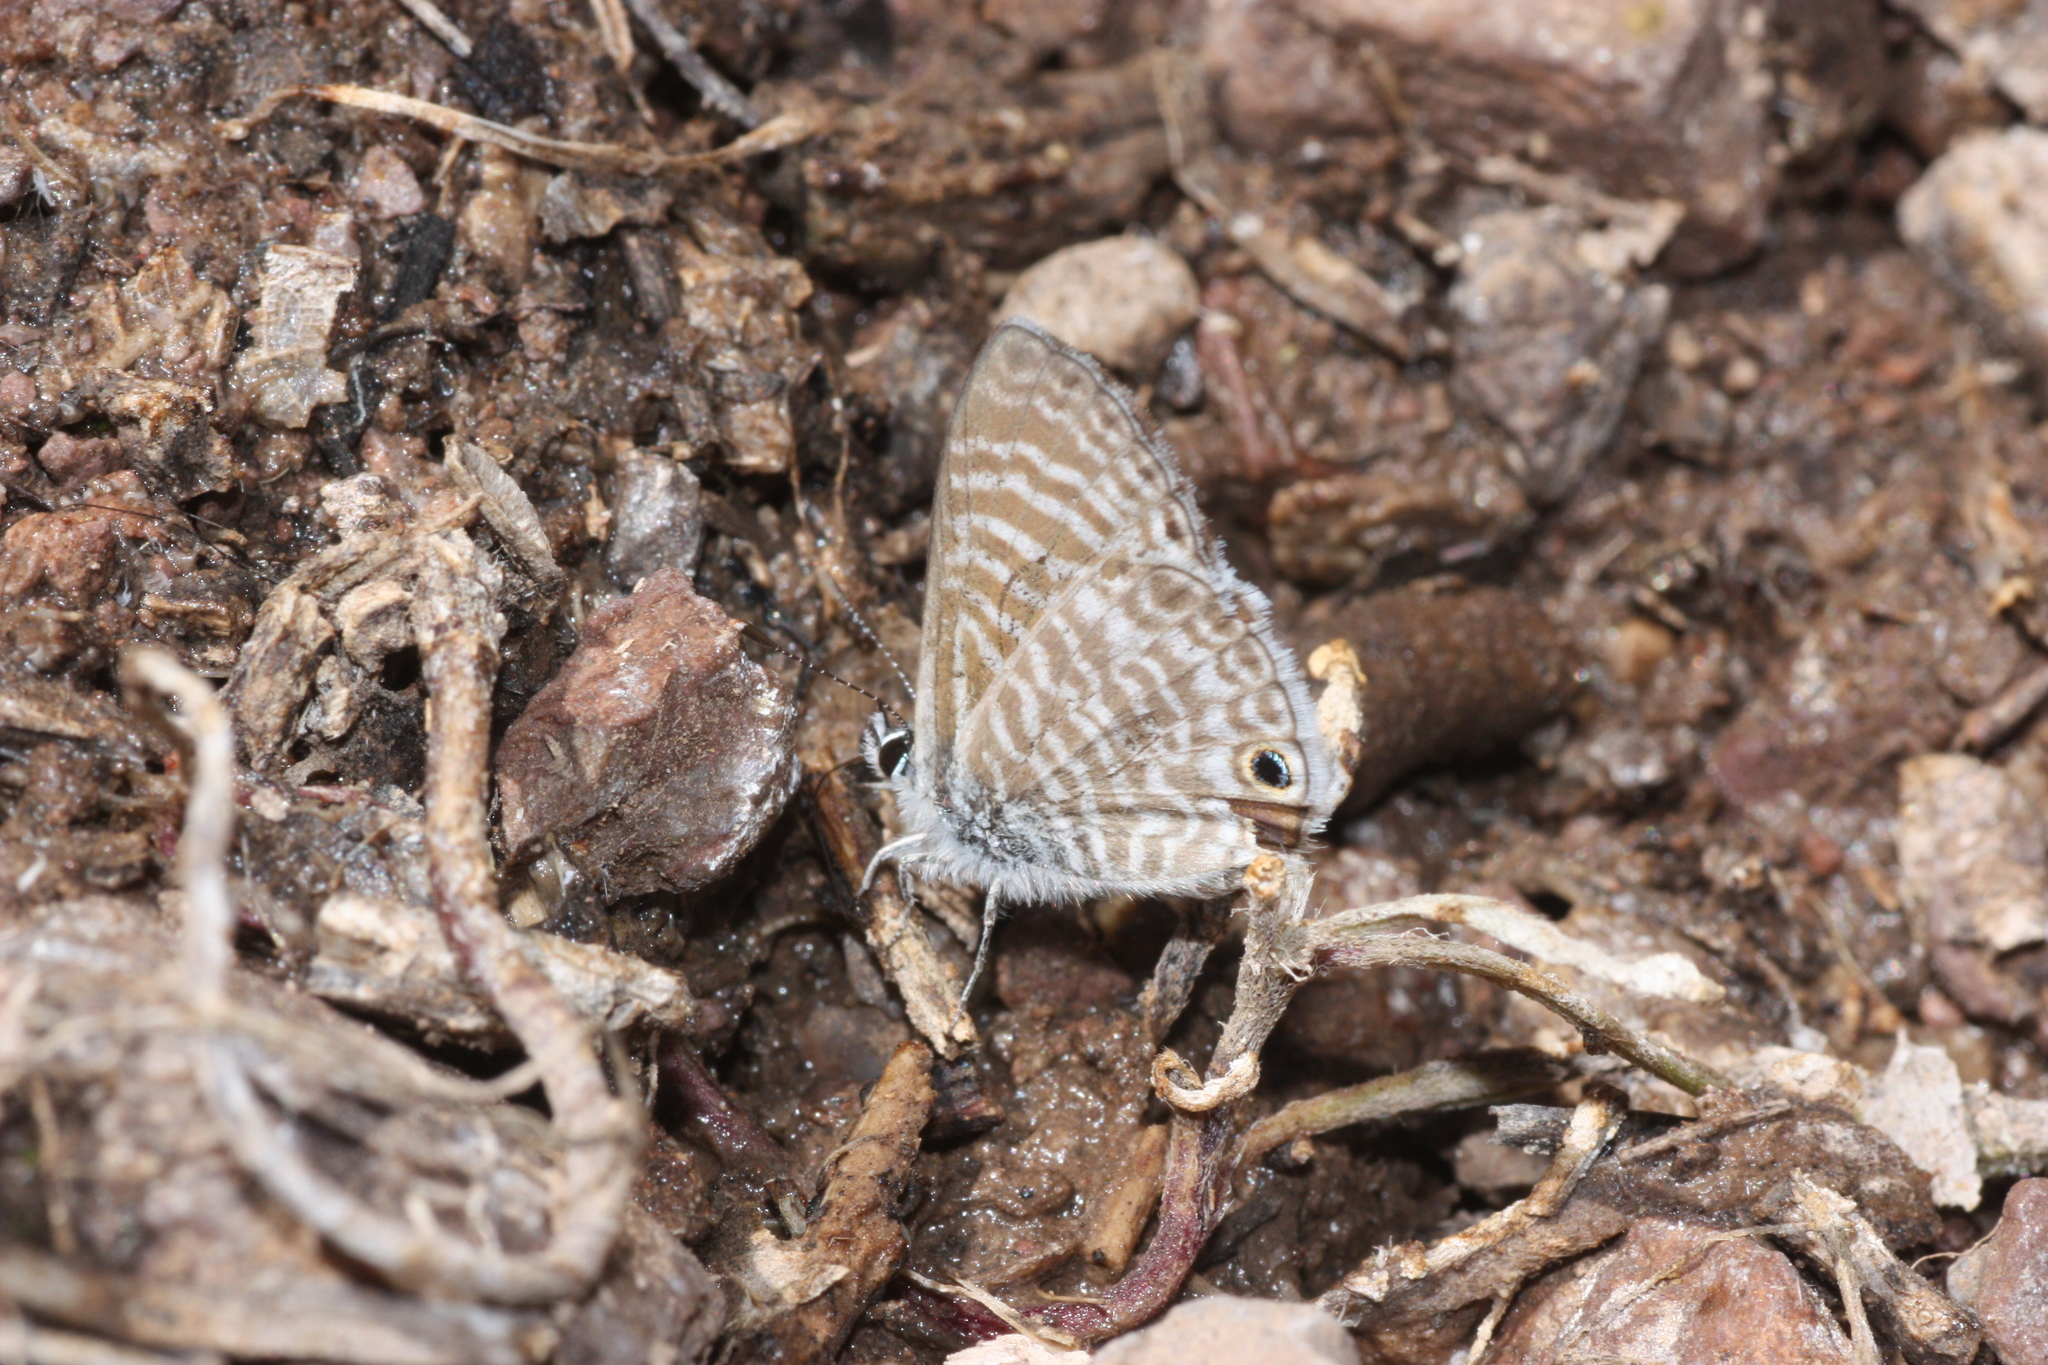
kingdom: Animalia
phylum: Arthropoda
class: Insecta
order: Lepidoptera
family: Lycaenidae
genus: Leptotes
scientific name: Leptotes marina
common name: Marine blue
